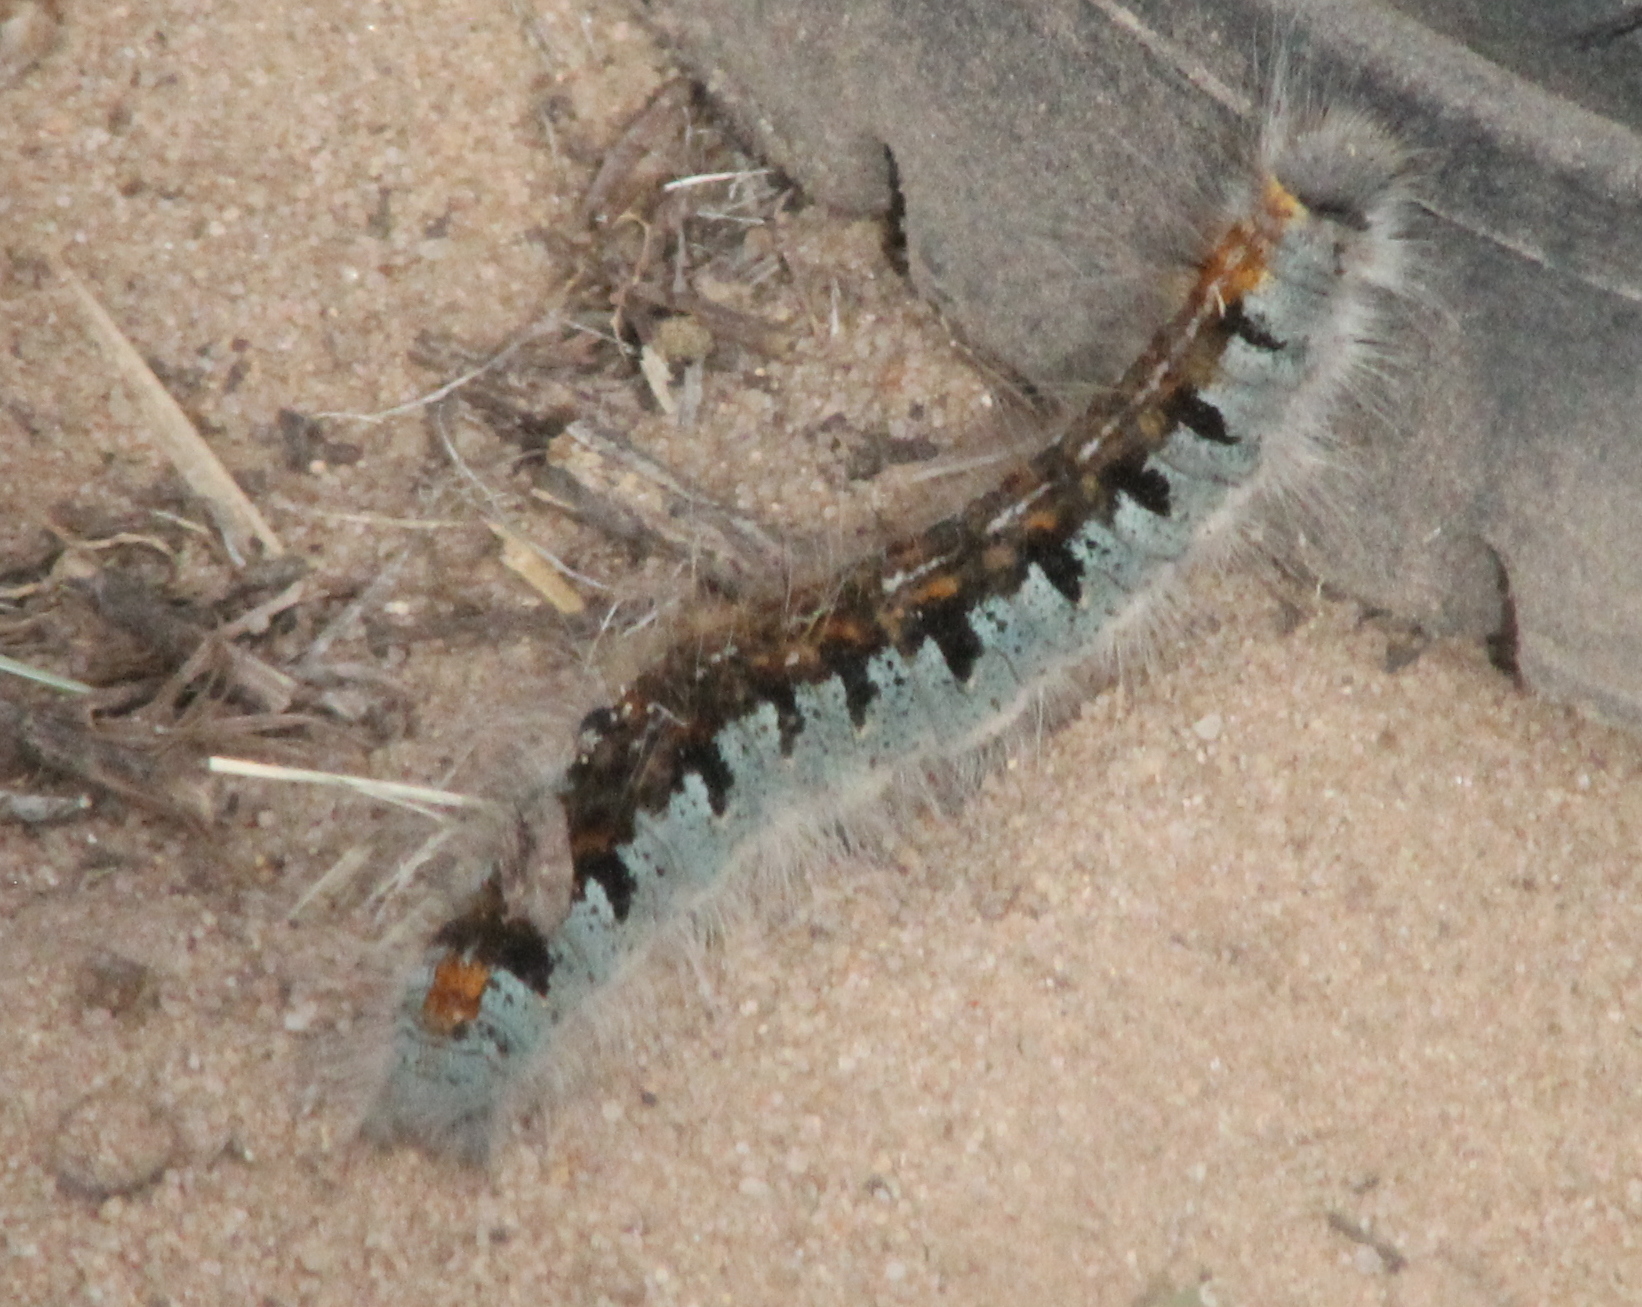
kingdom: Animalia
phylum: Arthropoda
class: Insecta
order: Lepidoptera
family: Lasiocampidae
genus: Malacosoma
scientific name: Malacosoma californica
